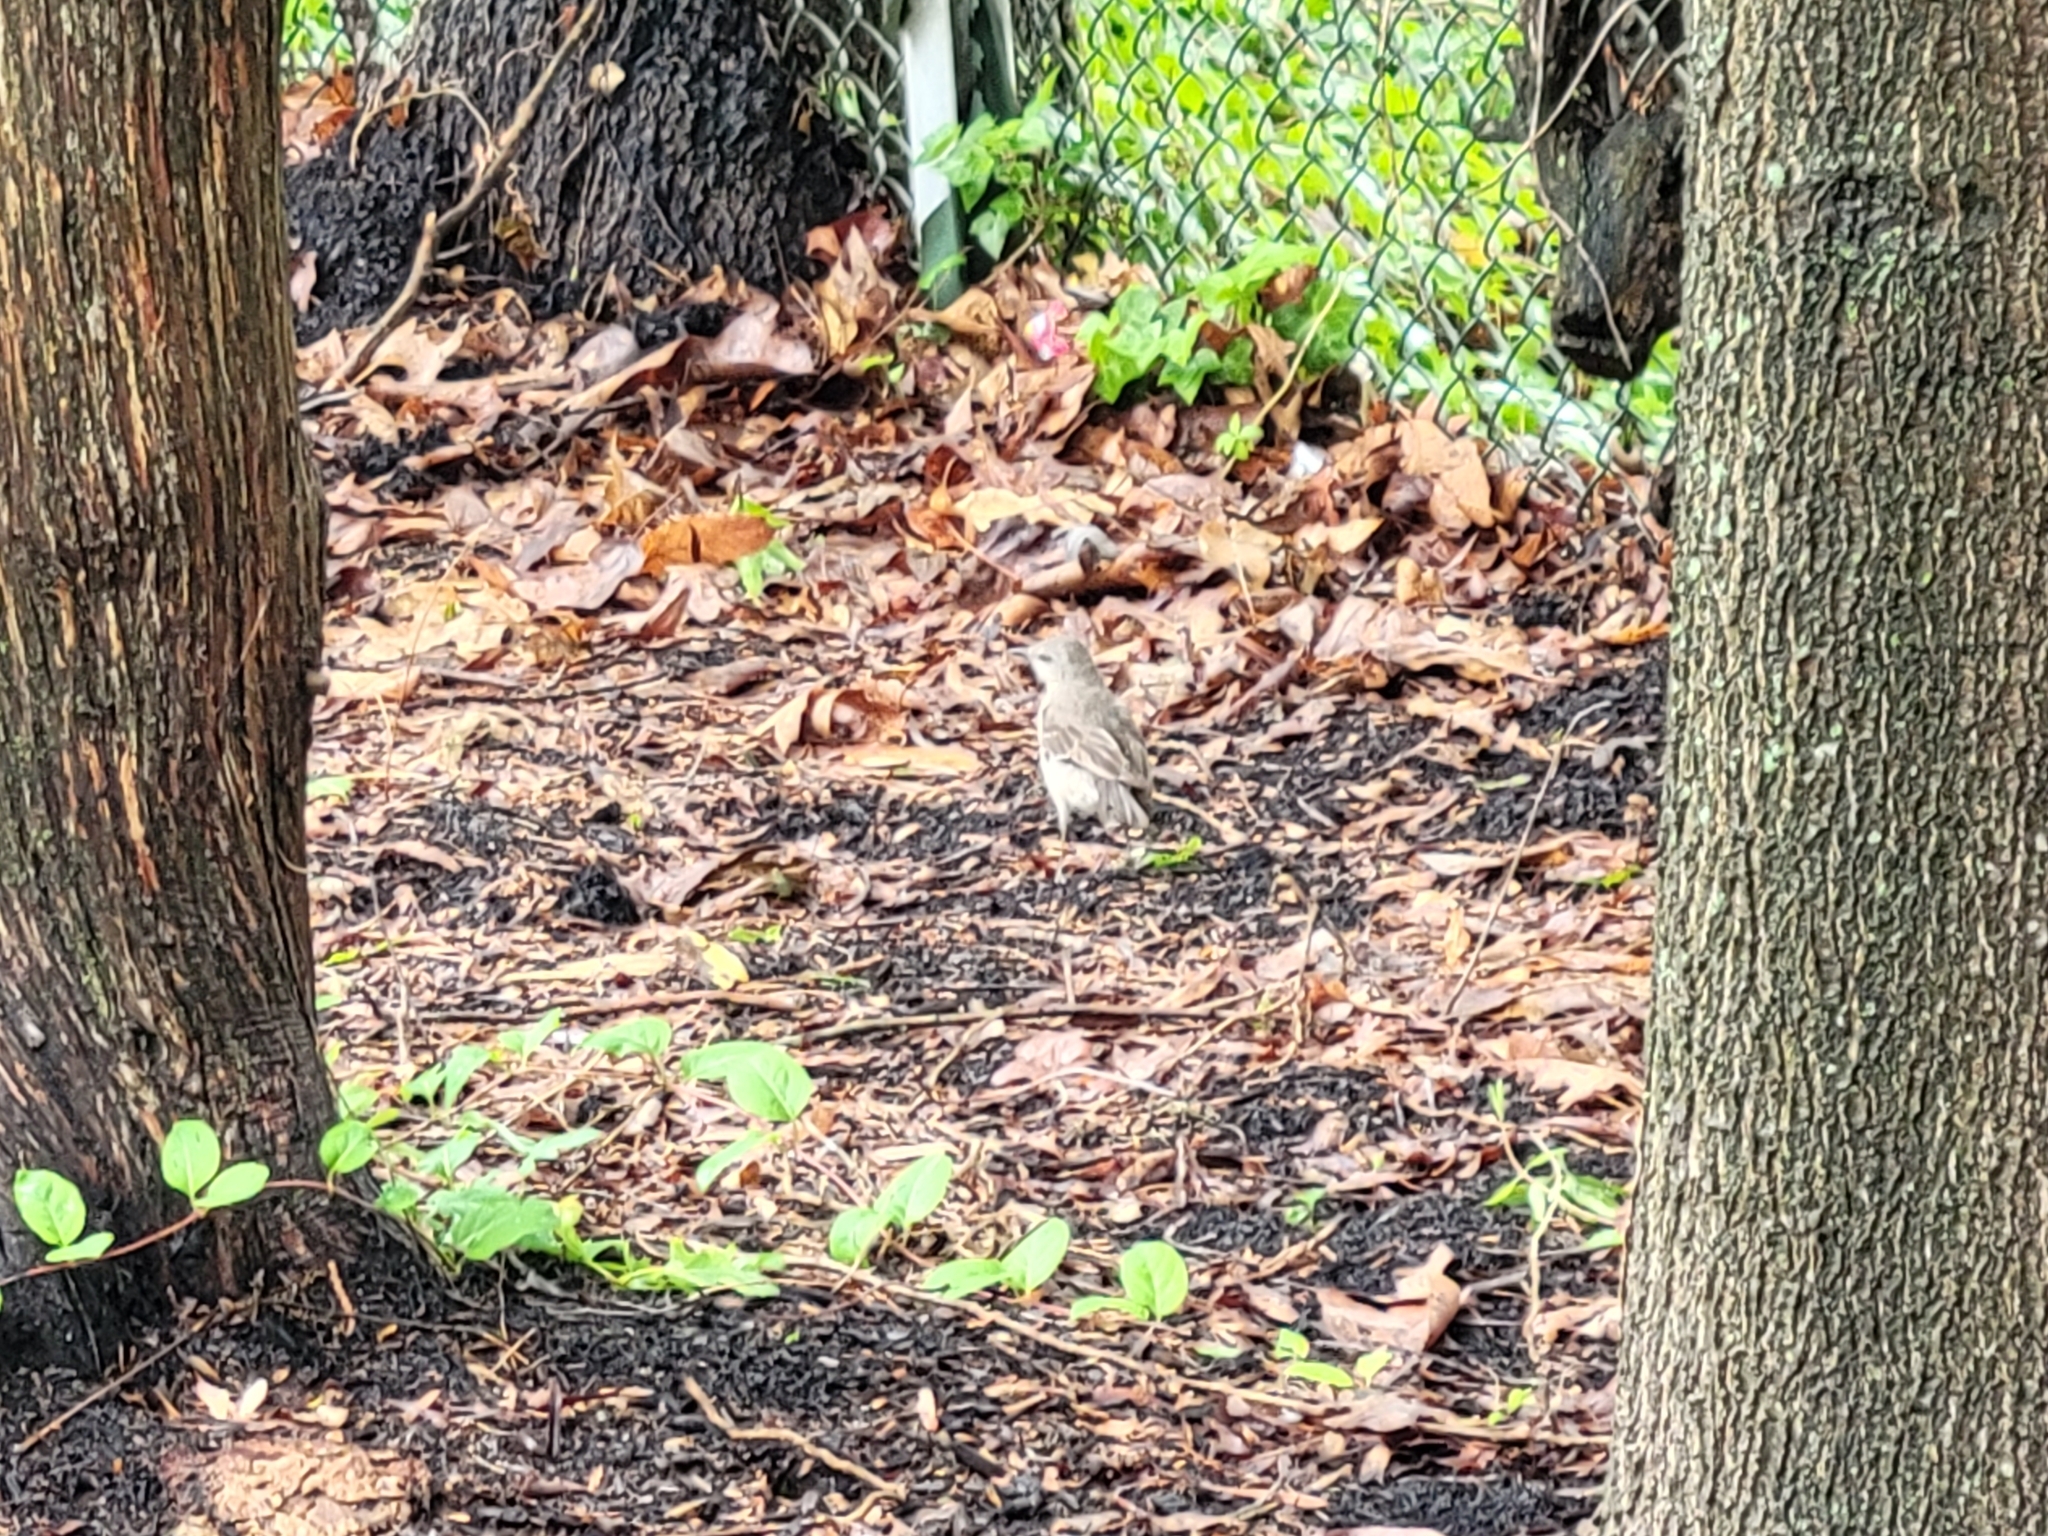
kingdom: Animalia
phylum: Chordata
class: Aves
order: Passeriformes
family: Mimidae
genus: Mimus
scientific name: Mimus polyglottos
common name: Northern mockingbird
